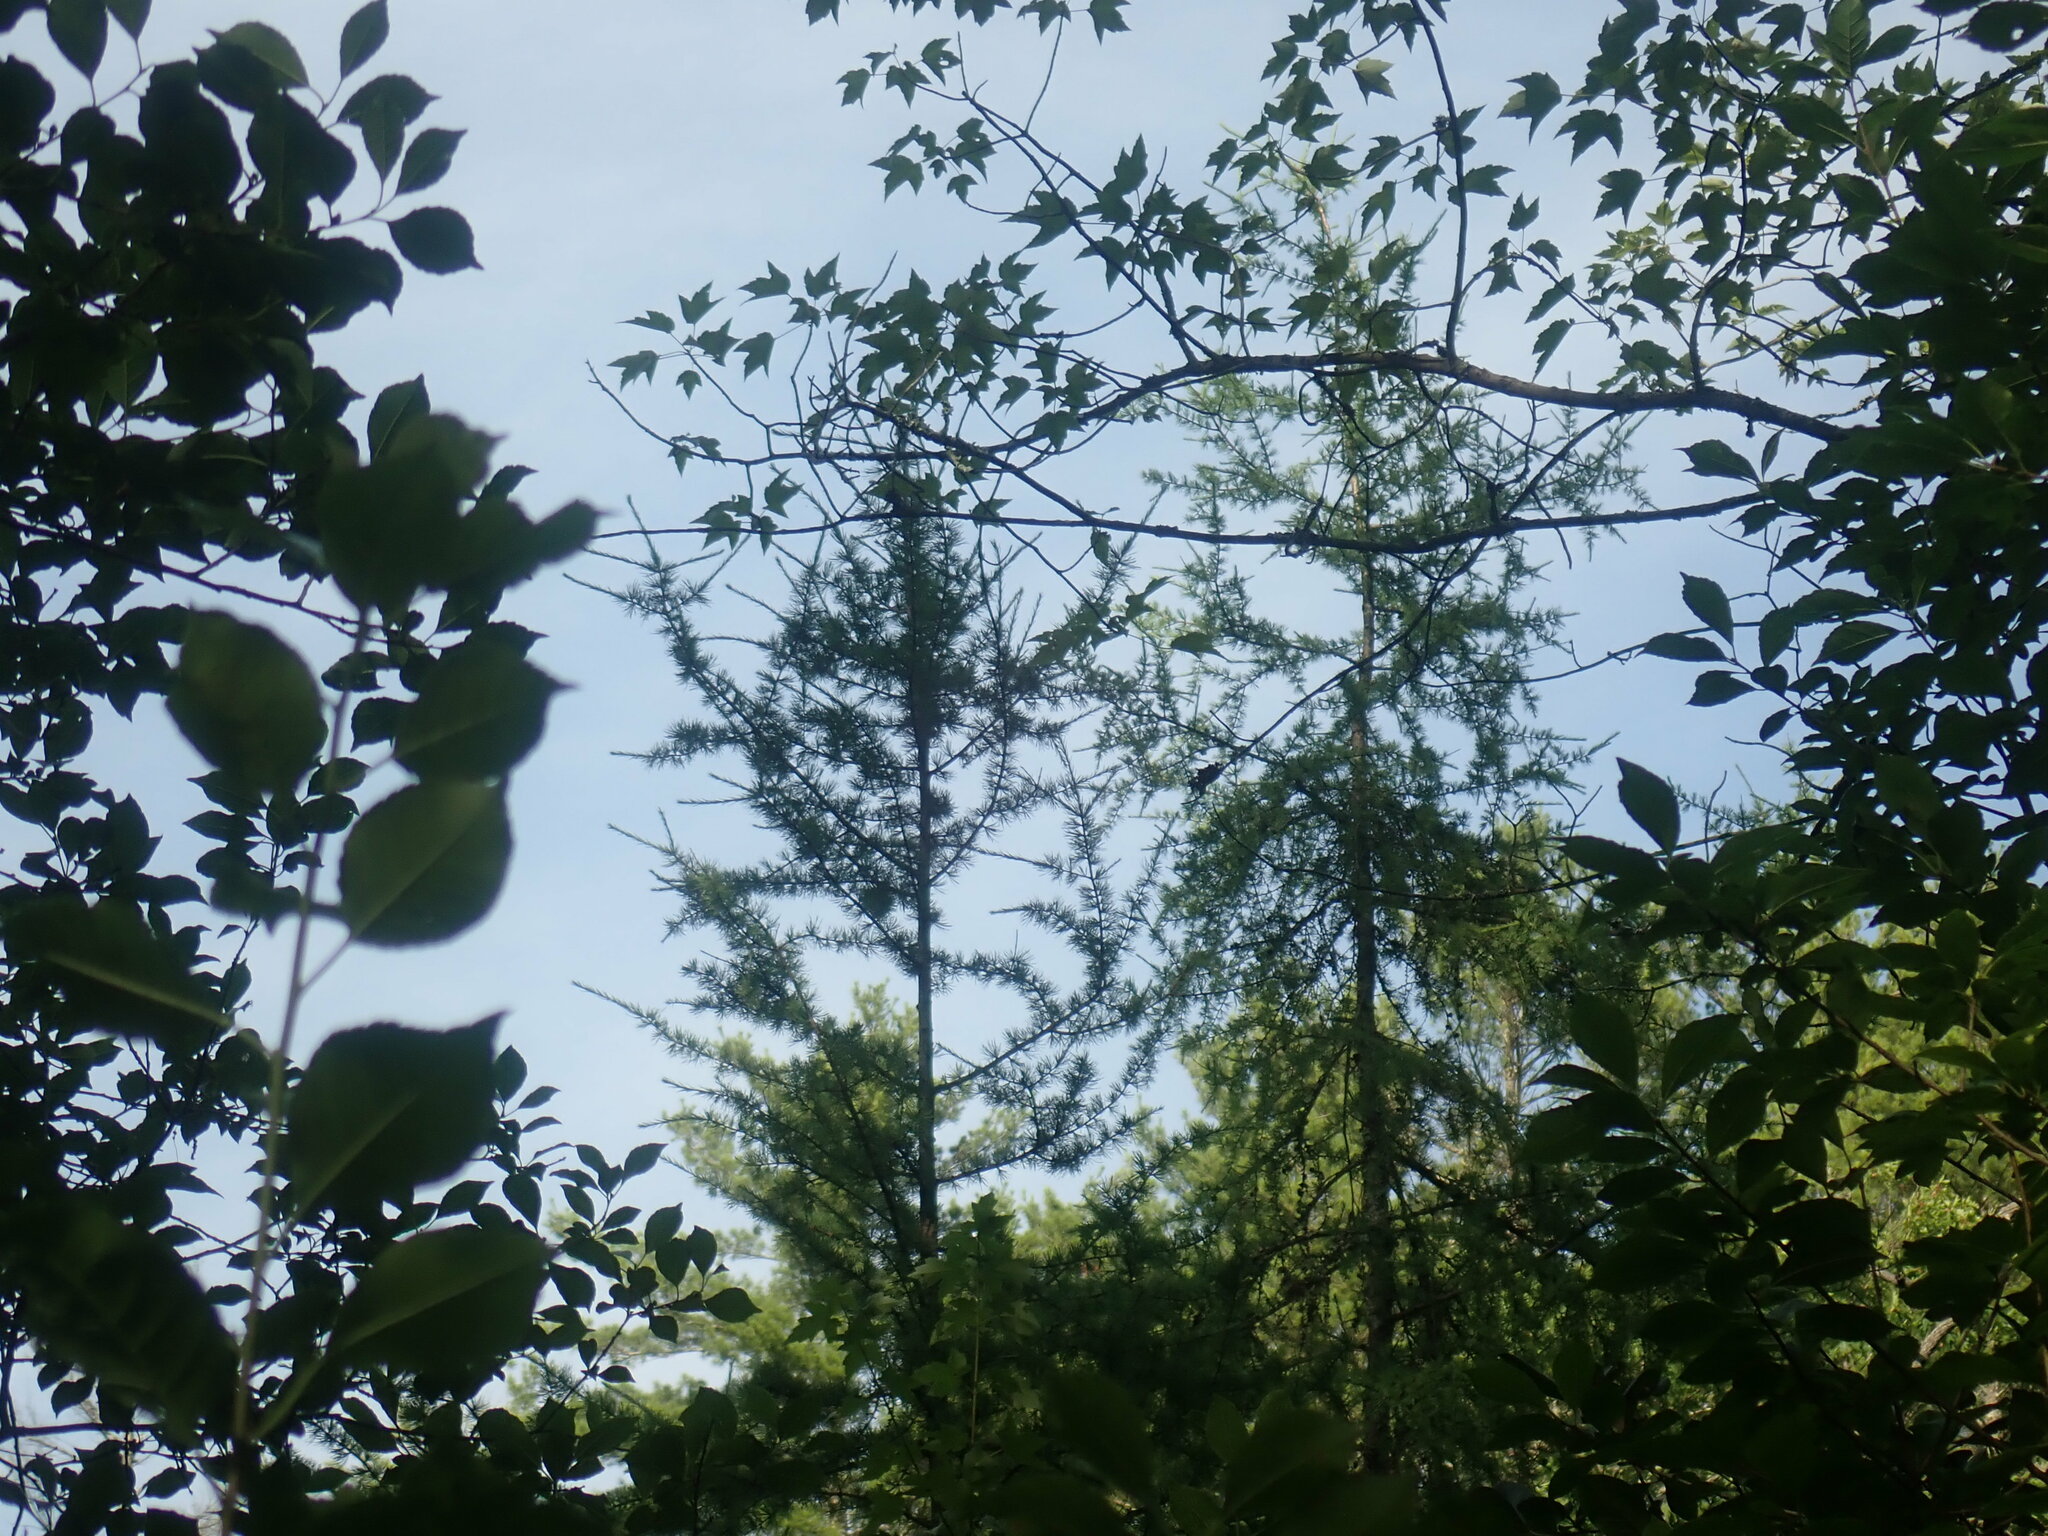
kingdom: Plantae
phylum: Tracheophyta
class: Pinopsida
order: Pinales
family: Pinaceae
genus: Larix
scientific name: Larix laricina
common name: American larch
